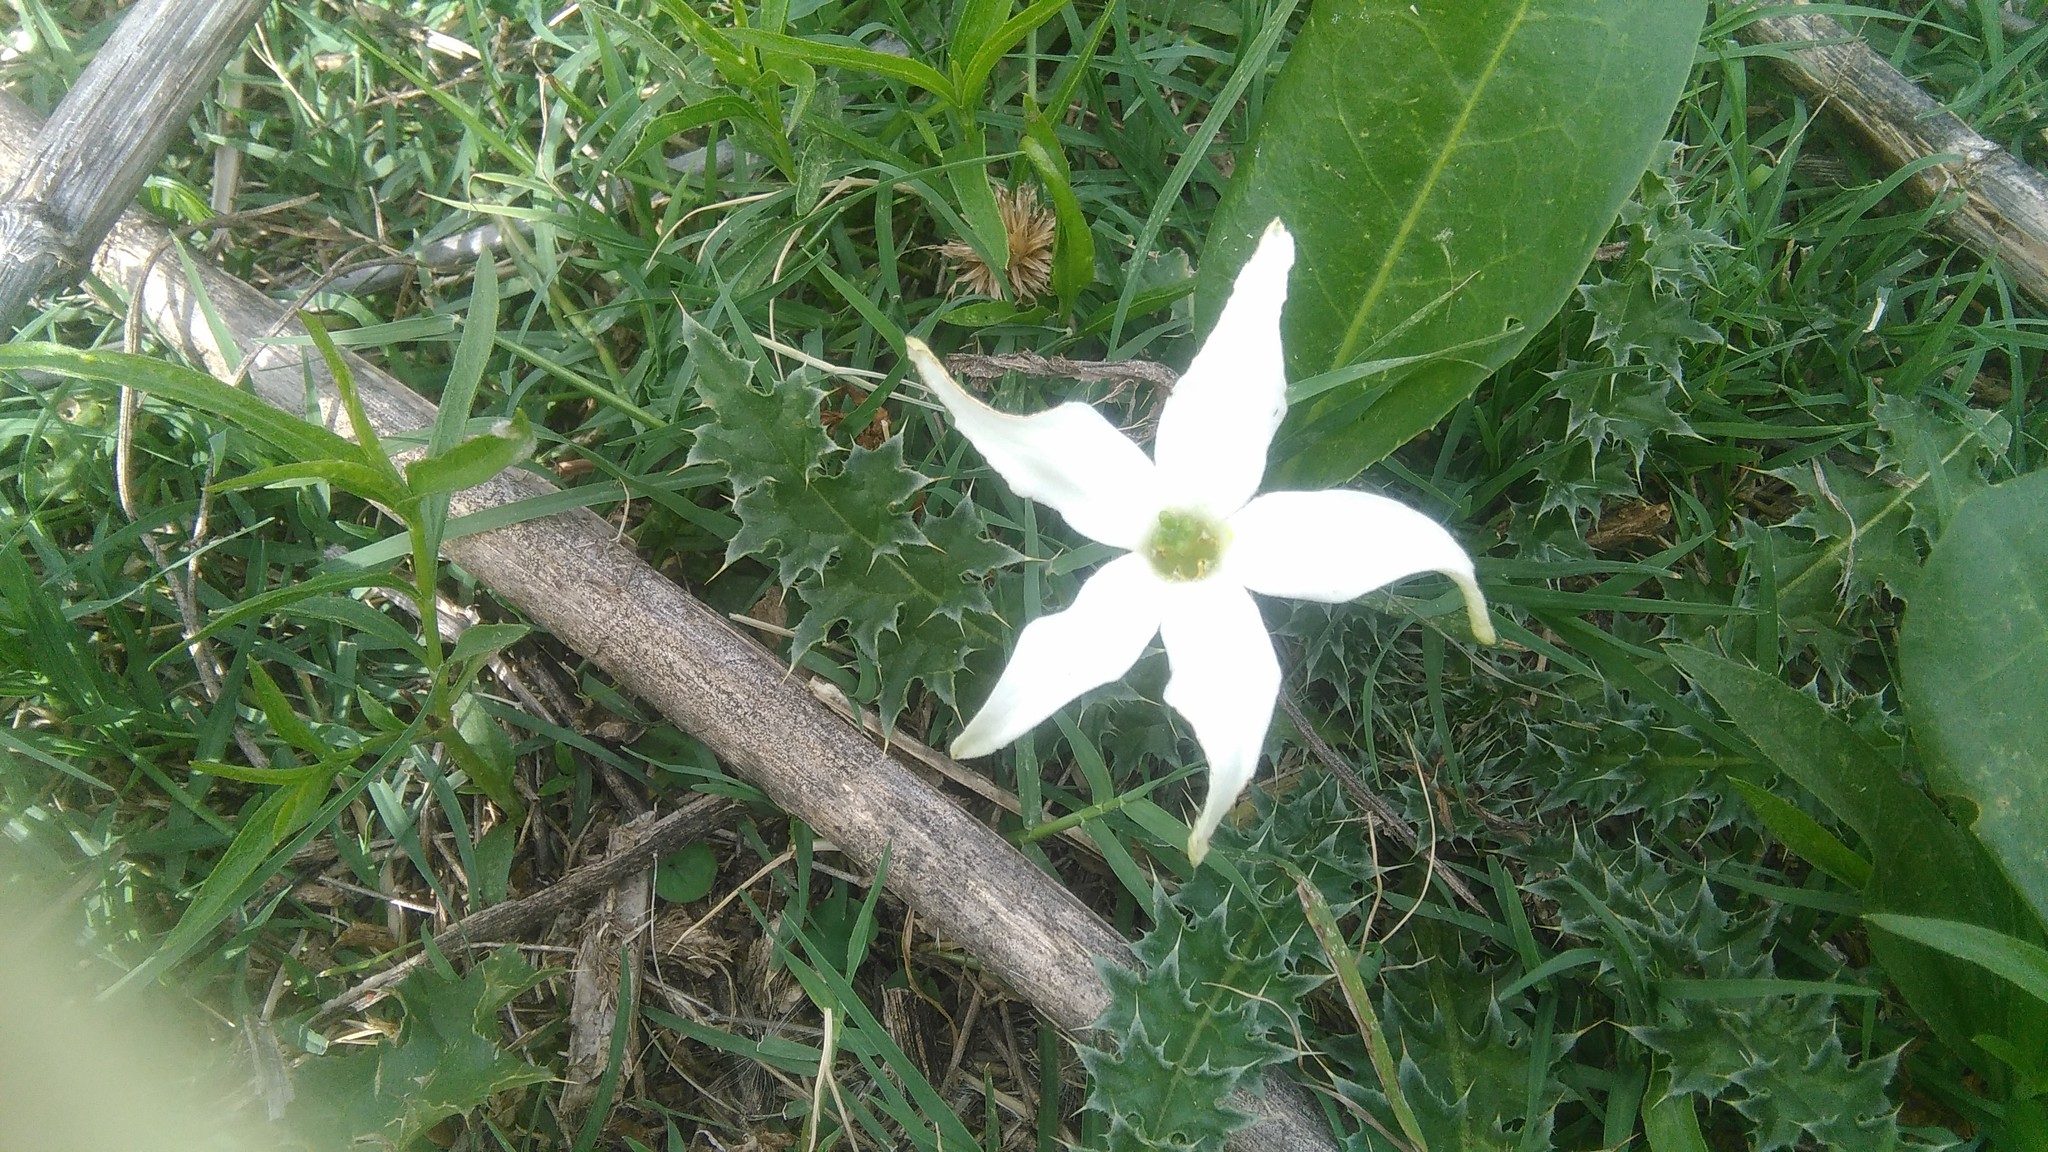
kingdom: Plantae
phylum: Tracheophyta
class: Magnoliopsida
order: Solanales
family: Solanaceae
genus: Jaborosa
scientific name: Jaborosa integrifolia
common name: Springblossom
